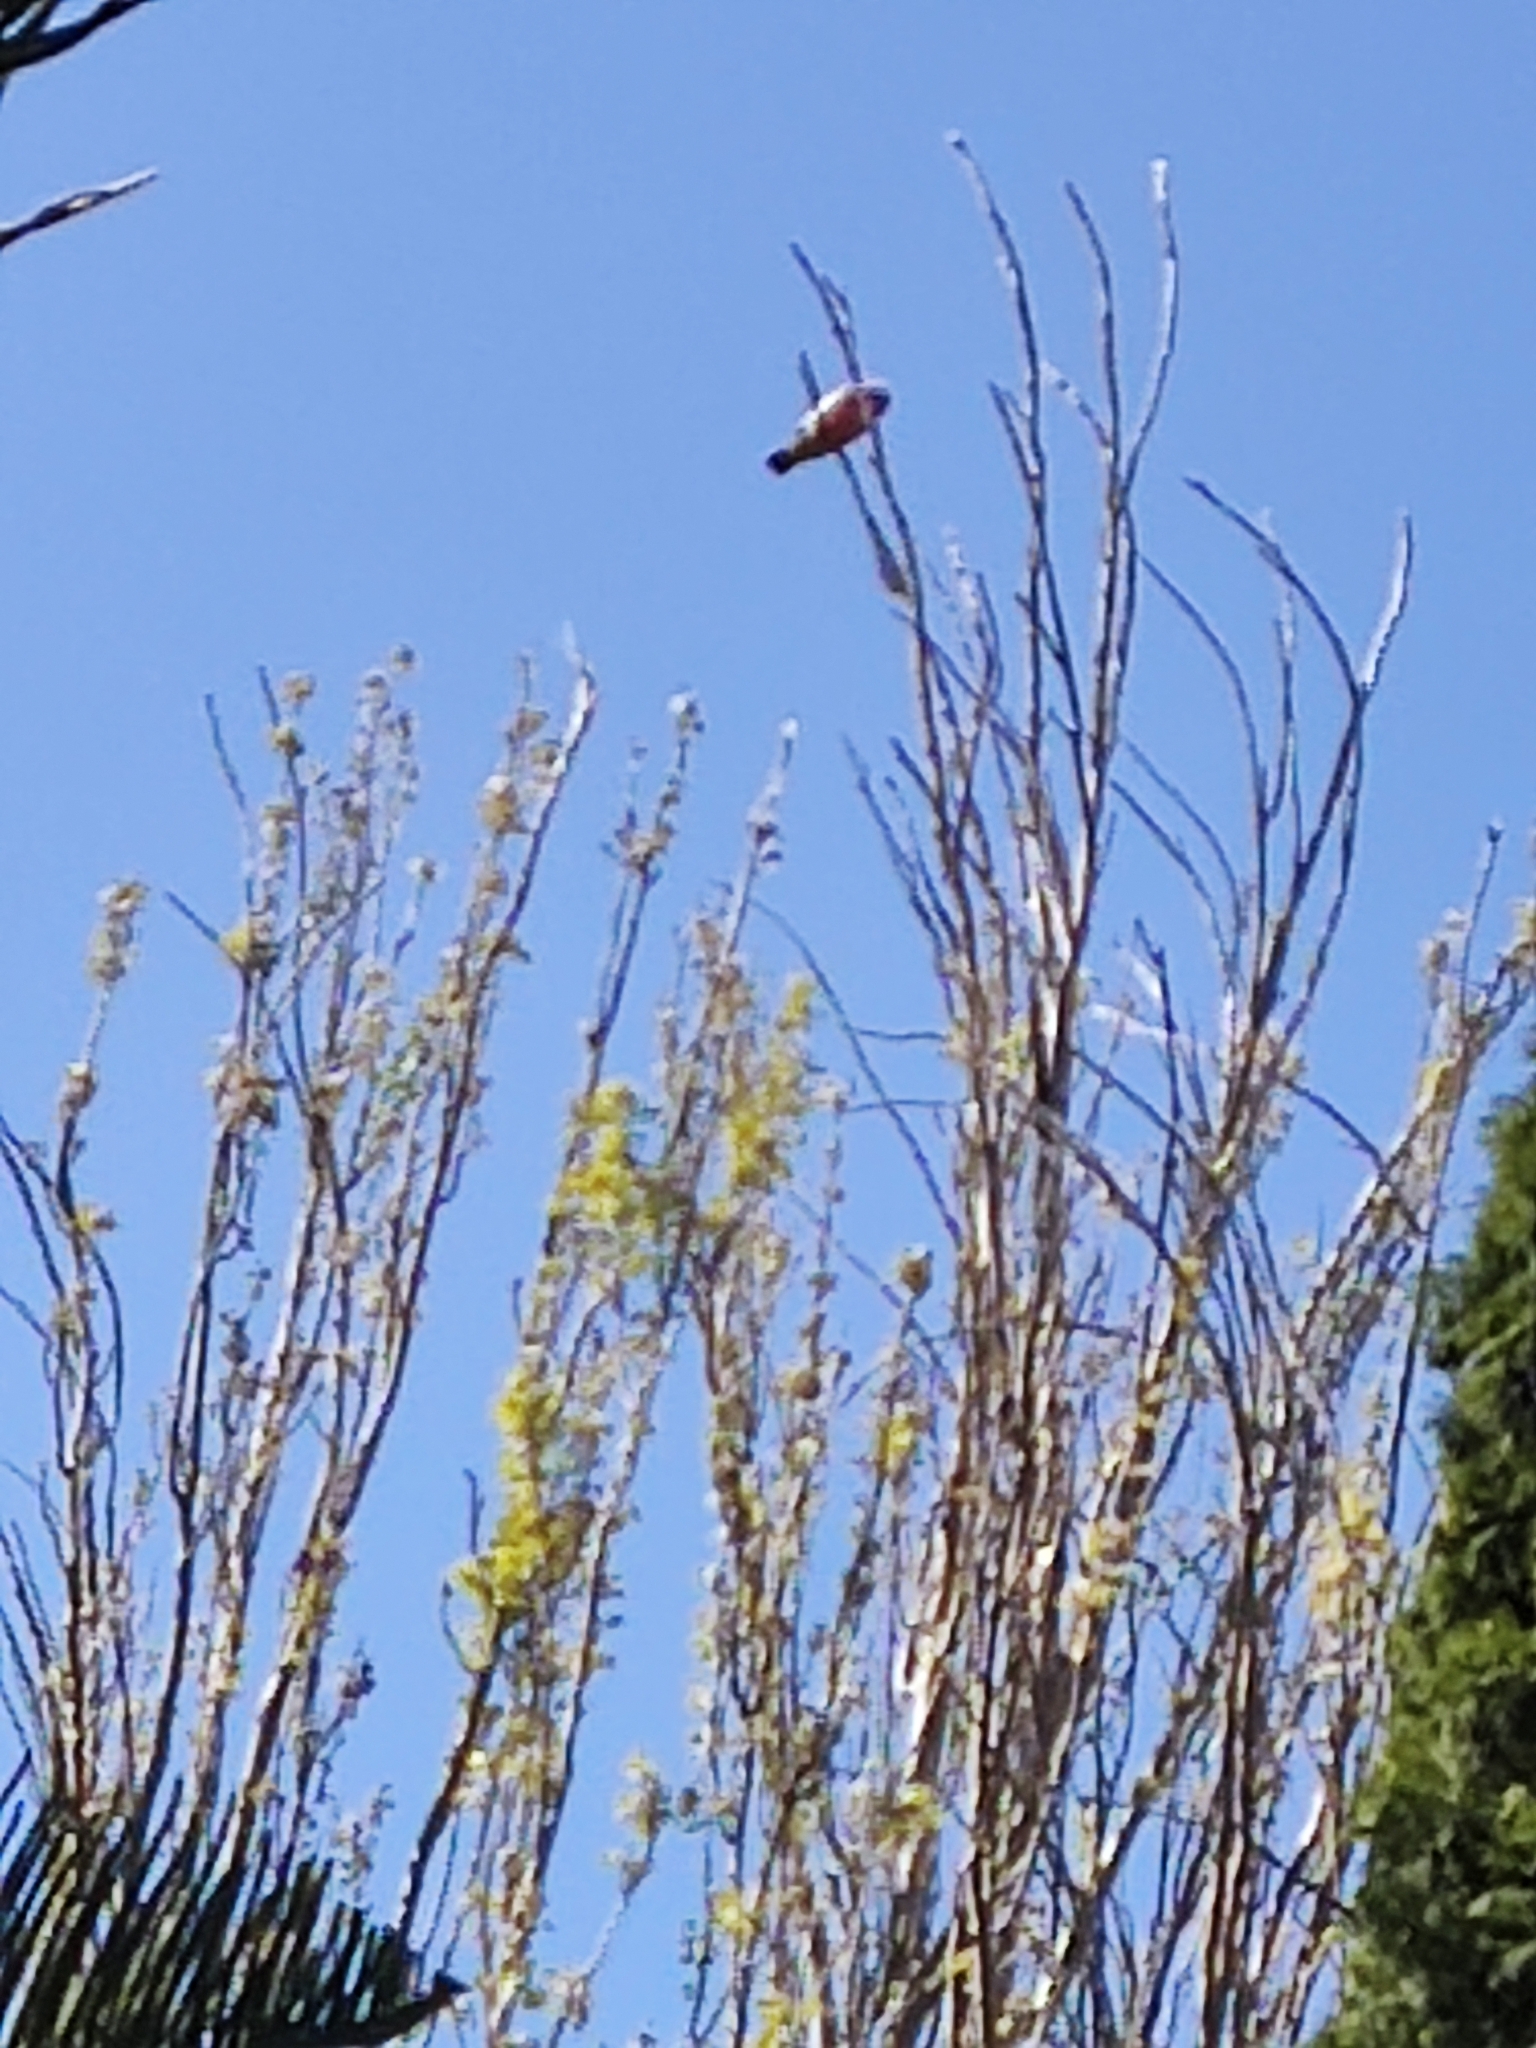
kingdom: Animalia
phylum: Chordata
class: Aves
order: Psittaciformes
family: Psittacidae
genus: Eolophus
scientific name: Eolophus roseicapilla
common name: Galah
